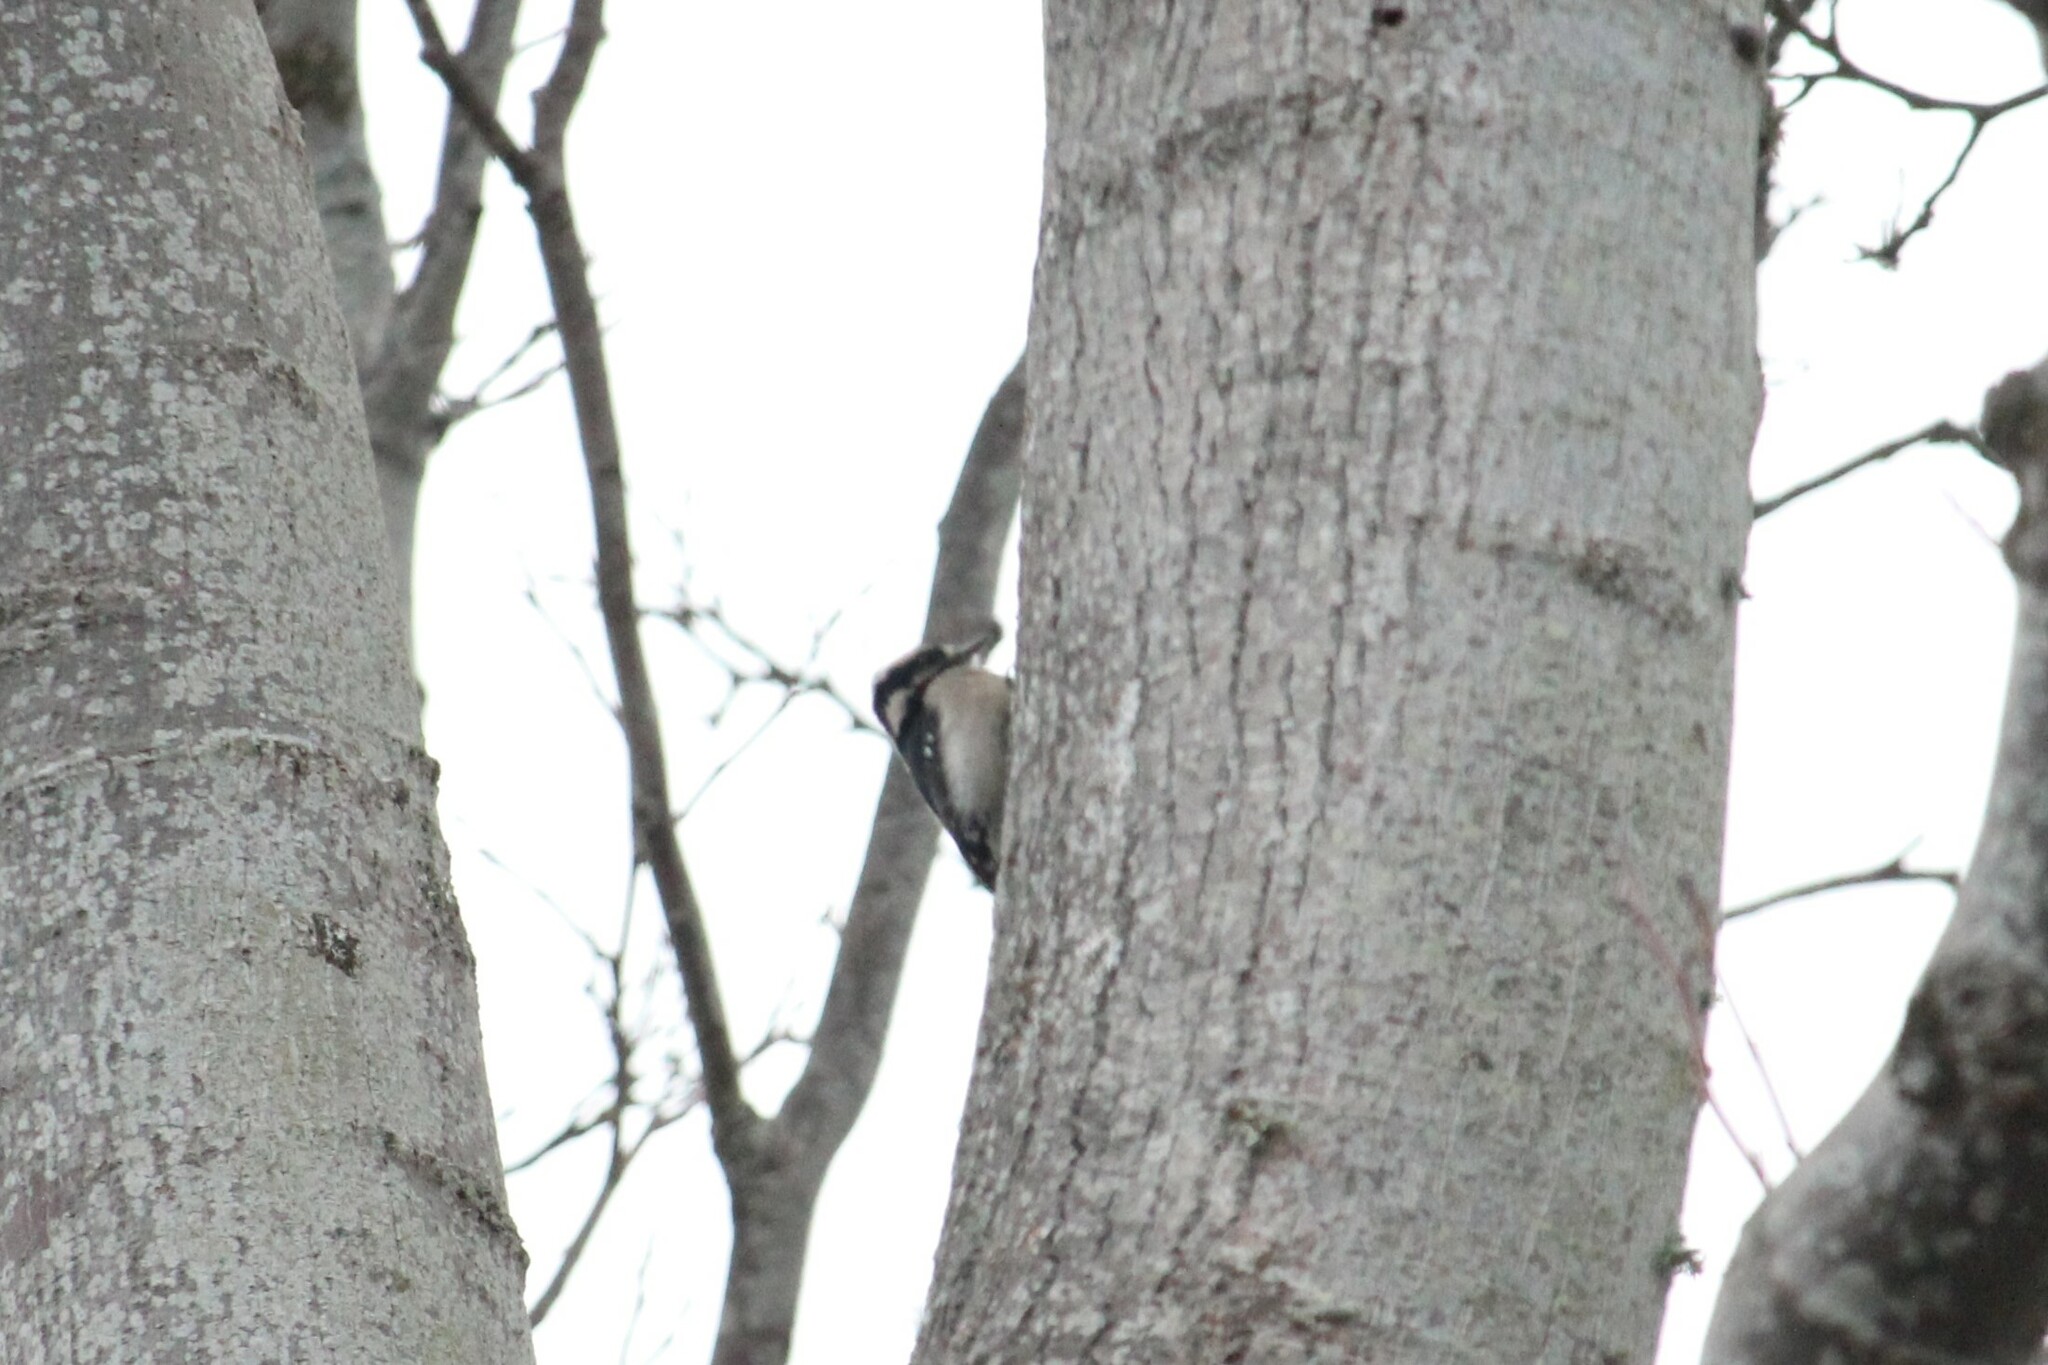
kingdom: Animalia
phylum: Chordata
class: Aves
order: Piciformes
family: Picidae
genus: Dryobates
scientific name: Dryobates pubescens
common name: Downy woodpecker
